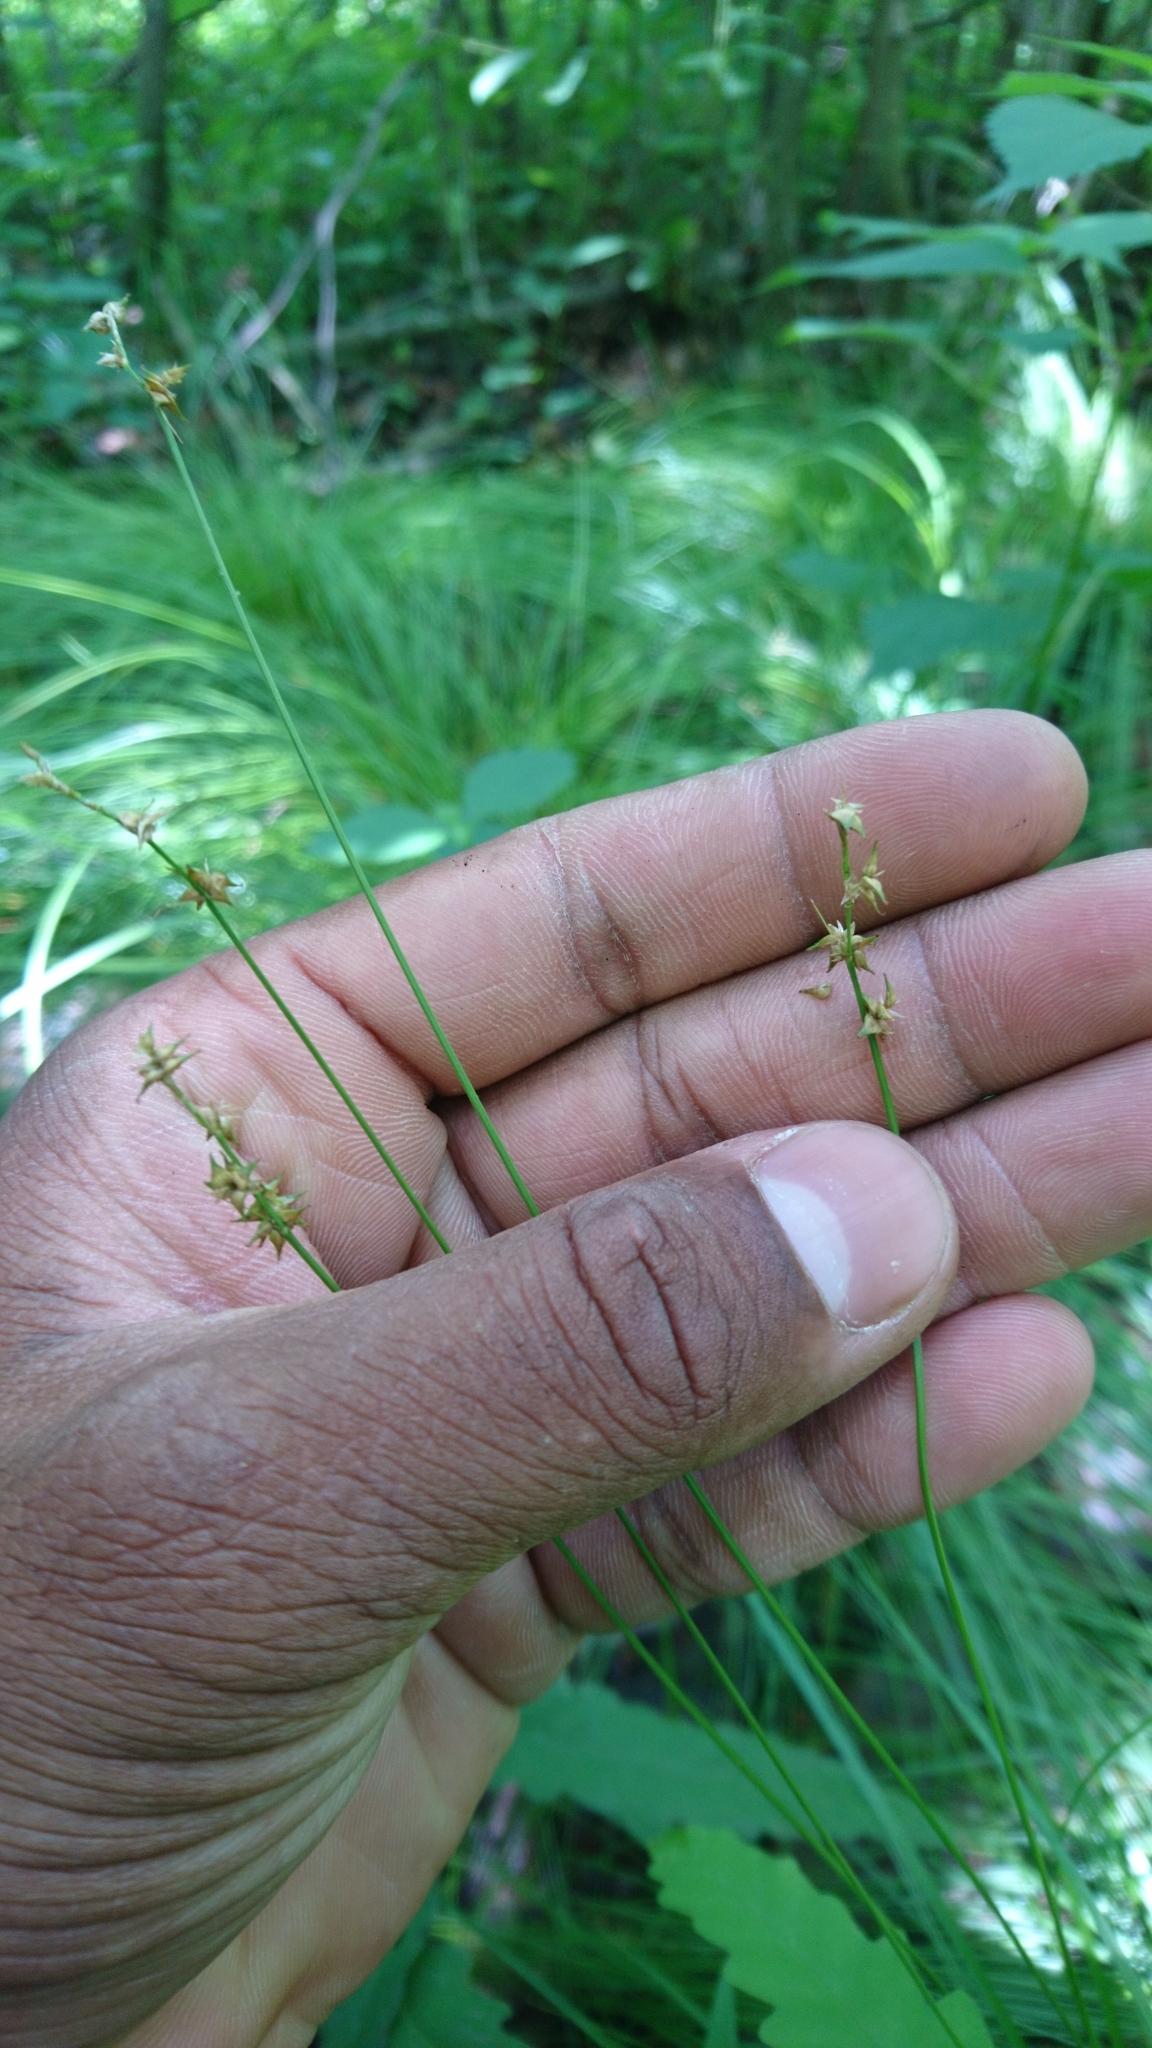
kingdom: Plantae
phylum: Tracheophyta
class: Liliopsida
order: Poales
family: Cyperaceae
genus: Carex
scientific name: Carex echinata
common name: Star sedge
